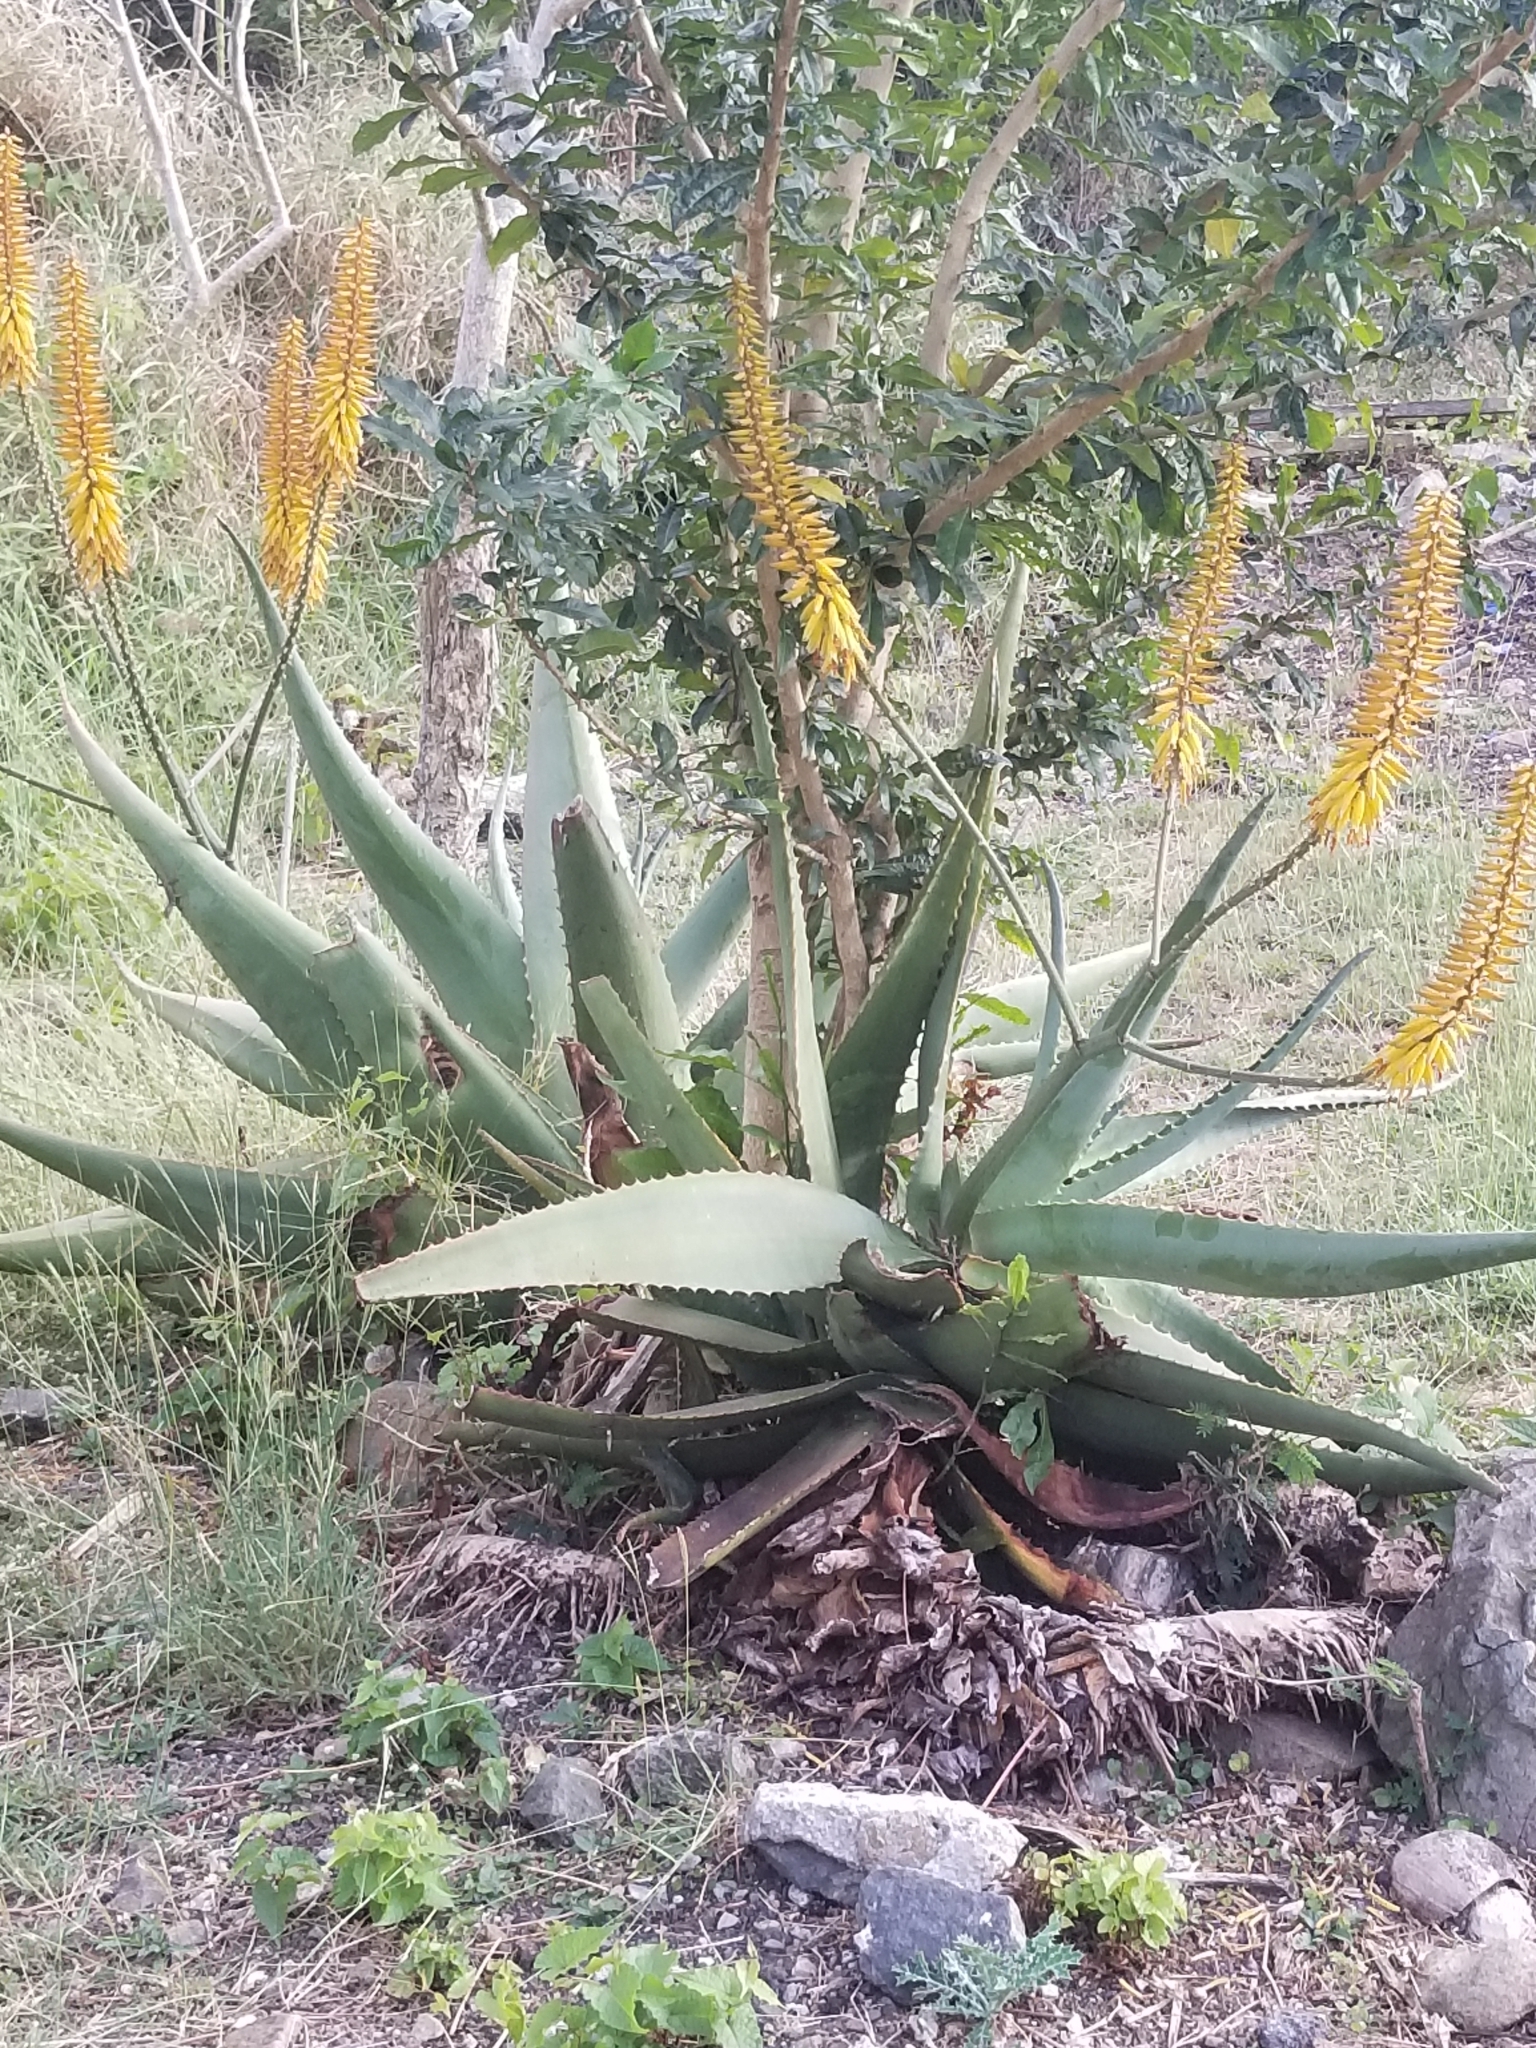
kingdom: Plantae
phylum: Tracheophyta
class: Liliopsida
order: Asparagales
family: Asphodelaceae
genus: Aloe
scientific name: Aloe vera
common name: Barbados aloe
